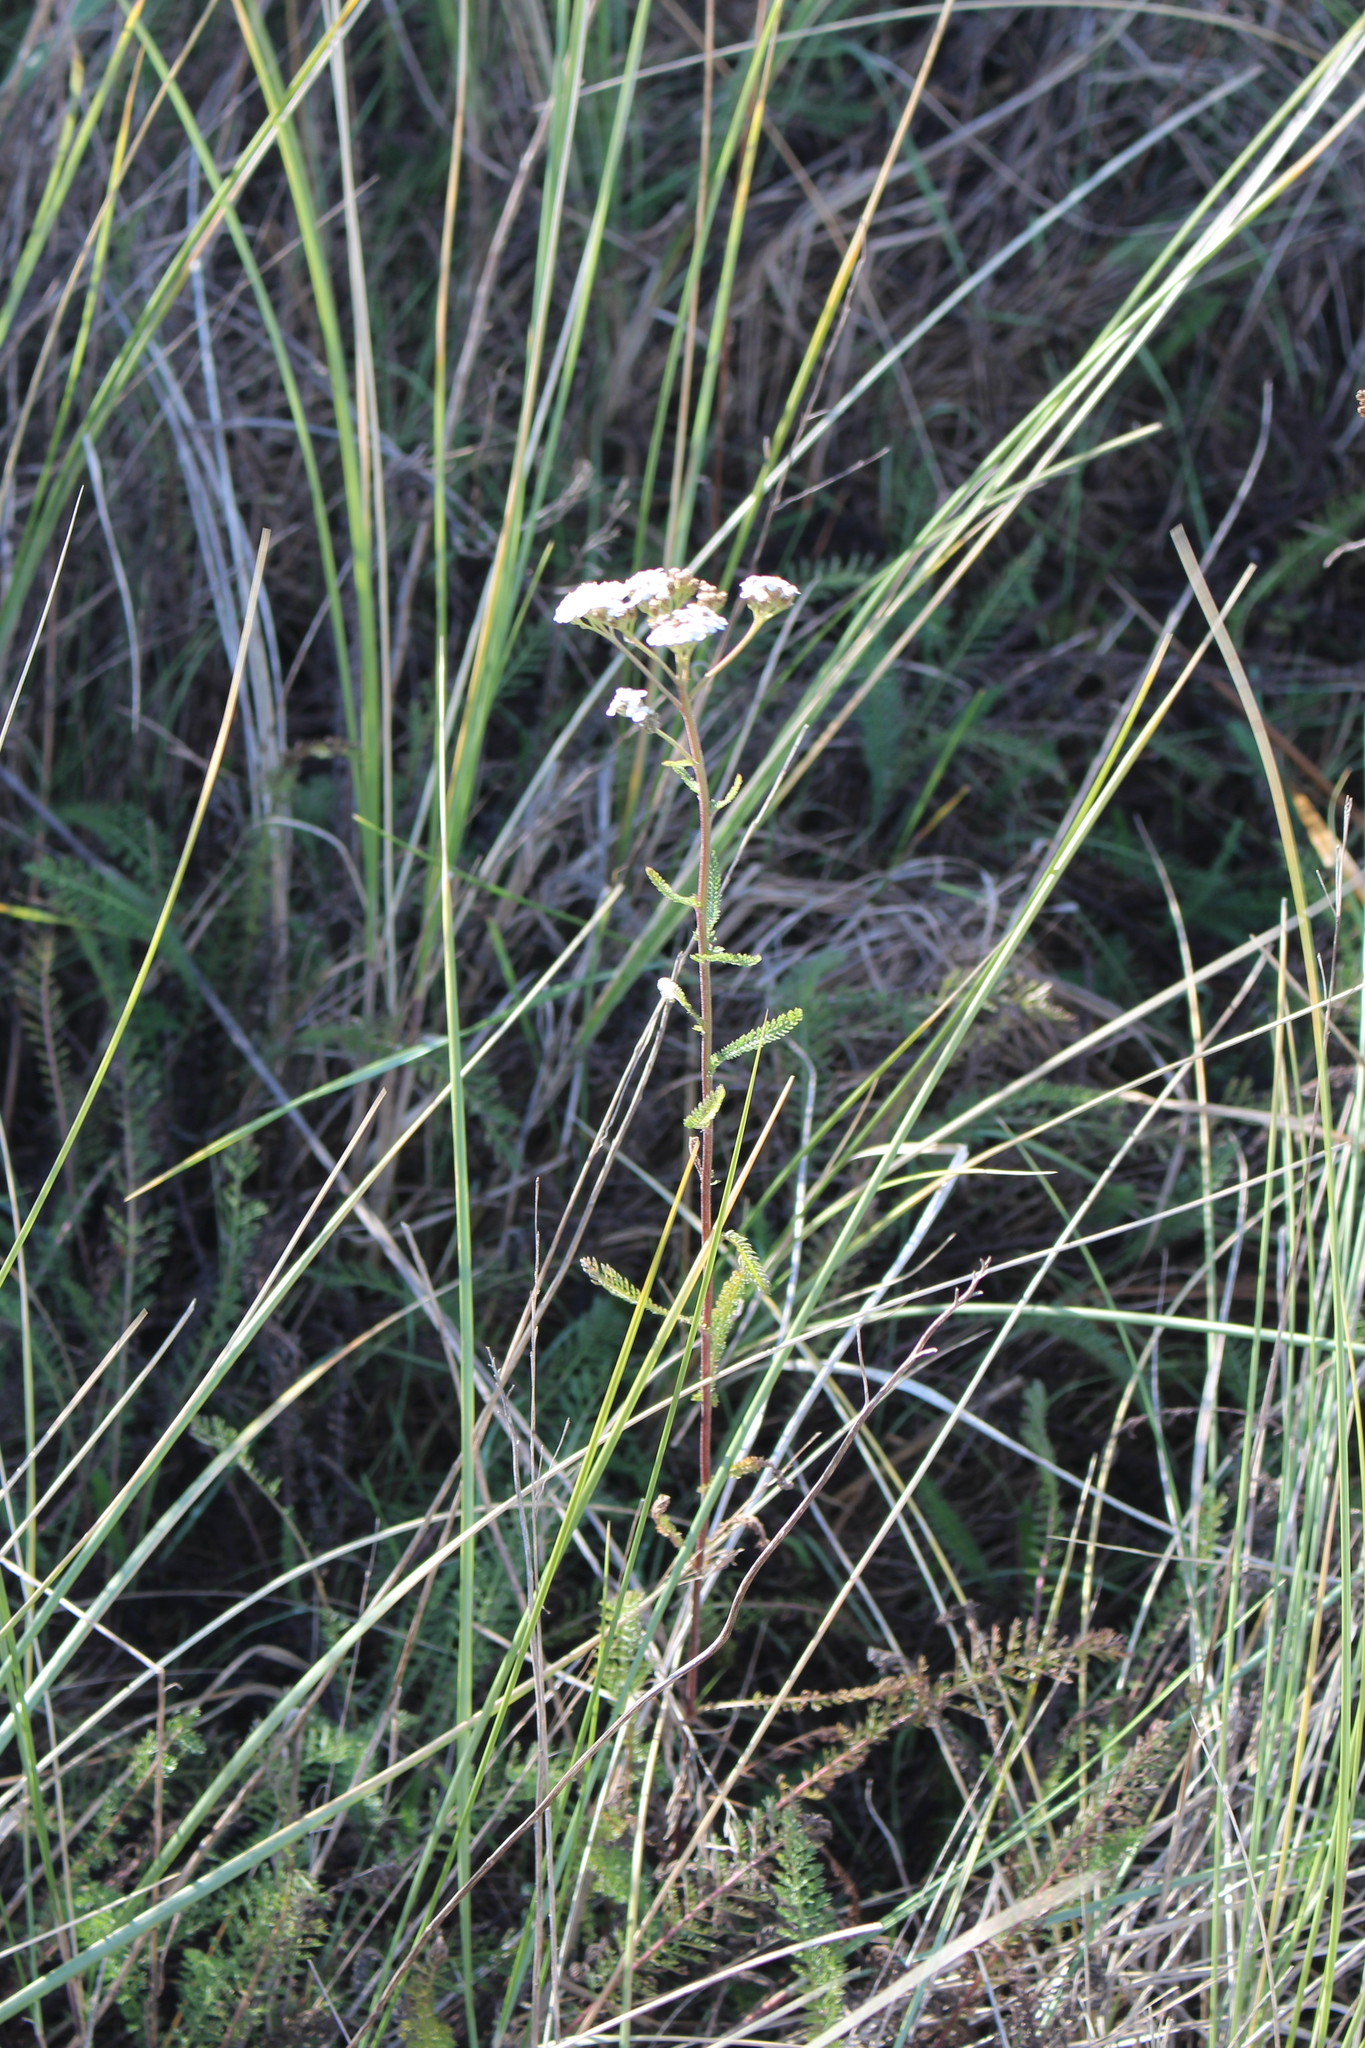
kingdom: Plantae
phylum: Tracheophyta
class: Magnoliopsida
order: Asterales
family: Asteraceae
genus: Achillea
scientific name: Achillea millefolium
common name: Yarrow
